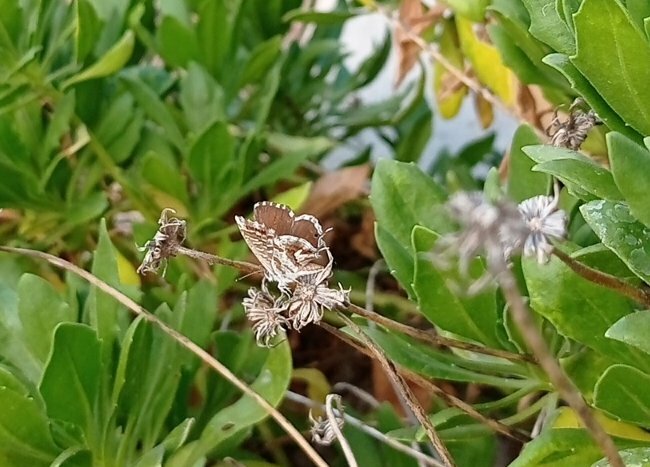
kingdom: Animalia
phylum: Arthropoda
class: Insecta
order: Lepidoptera
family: Lycaenidae
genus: Cacyreus
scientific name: Cacyreus marshalli
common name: Geranium bronze
